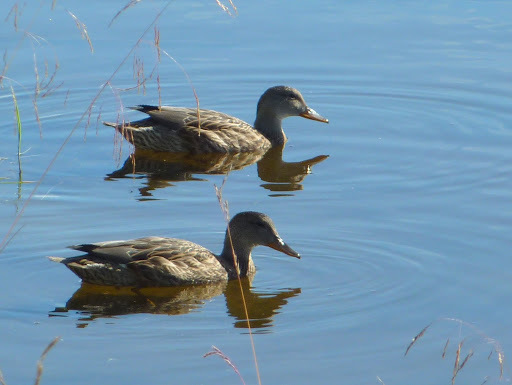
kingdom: Animalia
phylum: Chordata
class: Aves
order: Anseriformes
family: Anatidae
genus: Anas
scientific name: Anas platyrhynchos
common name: Mallard
